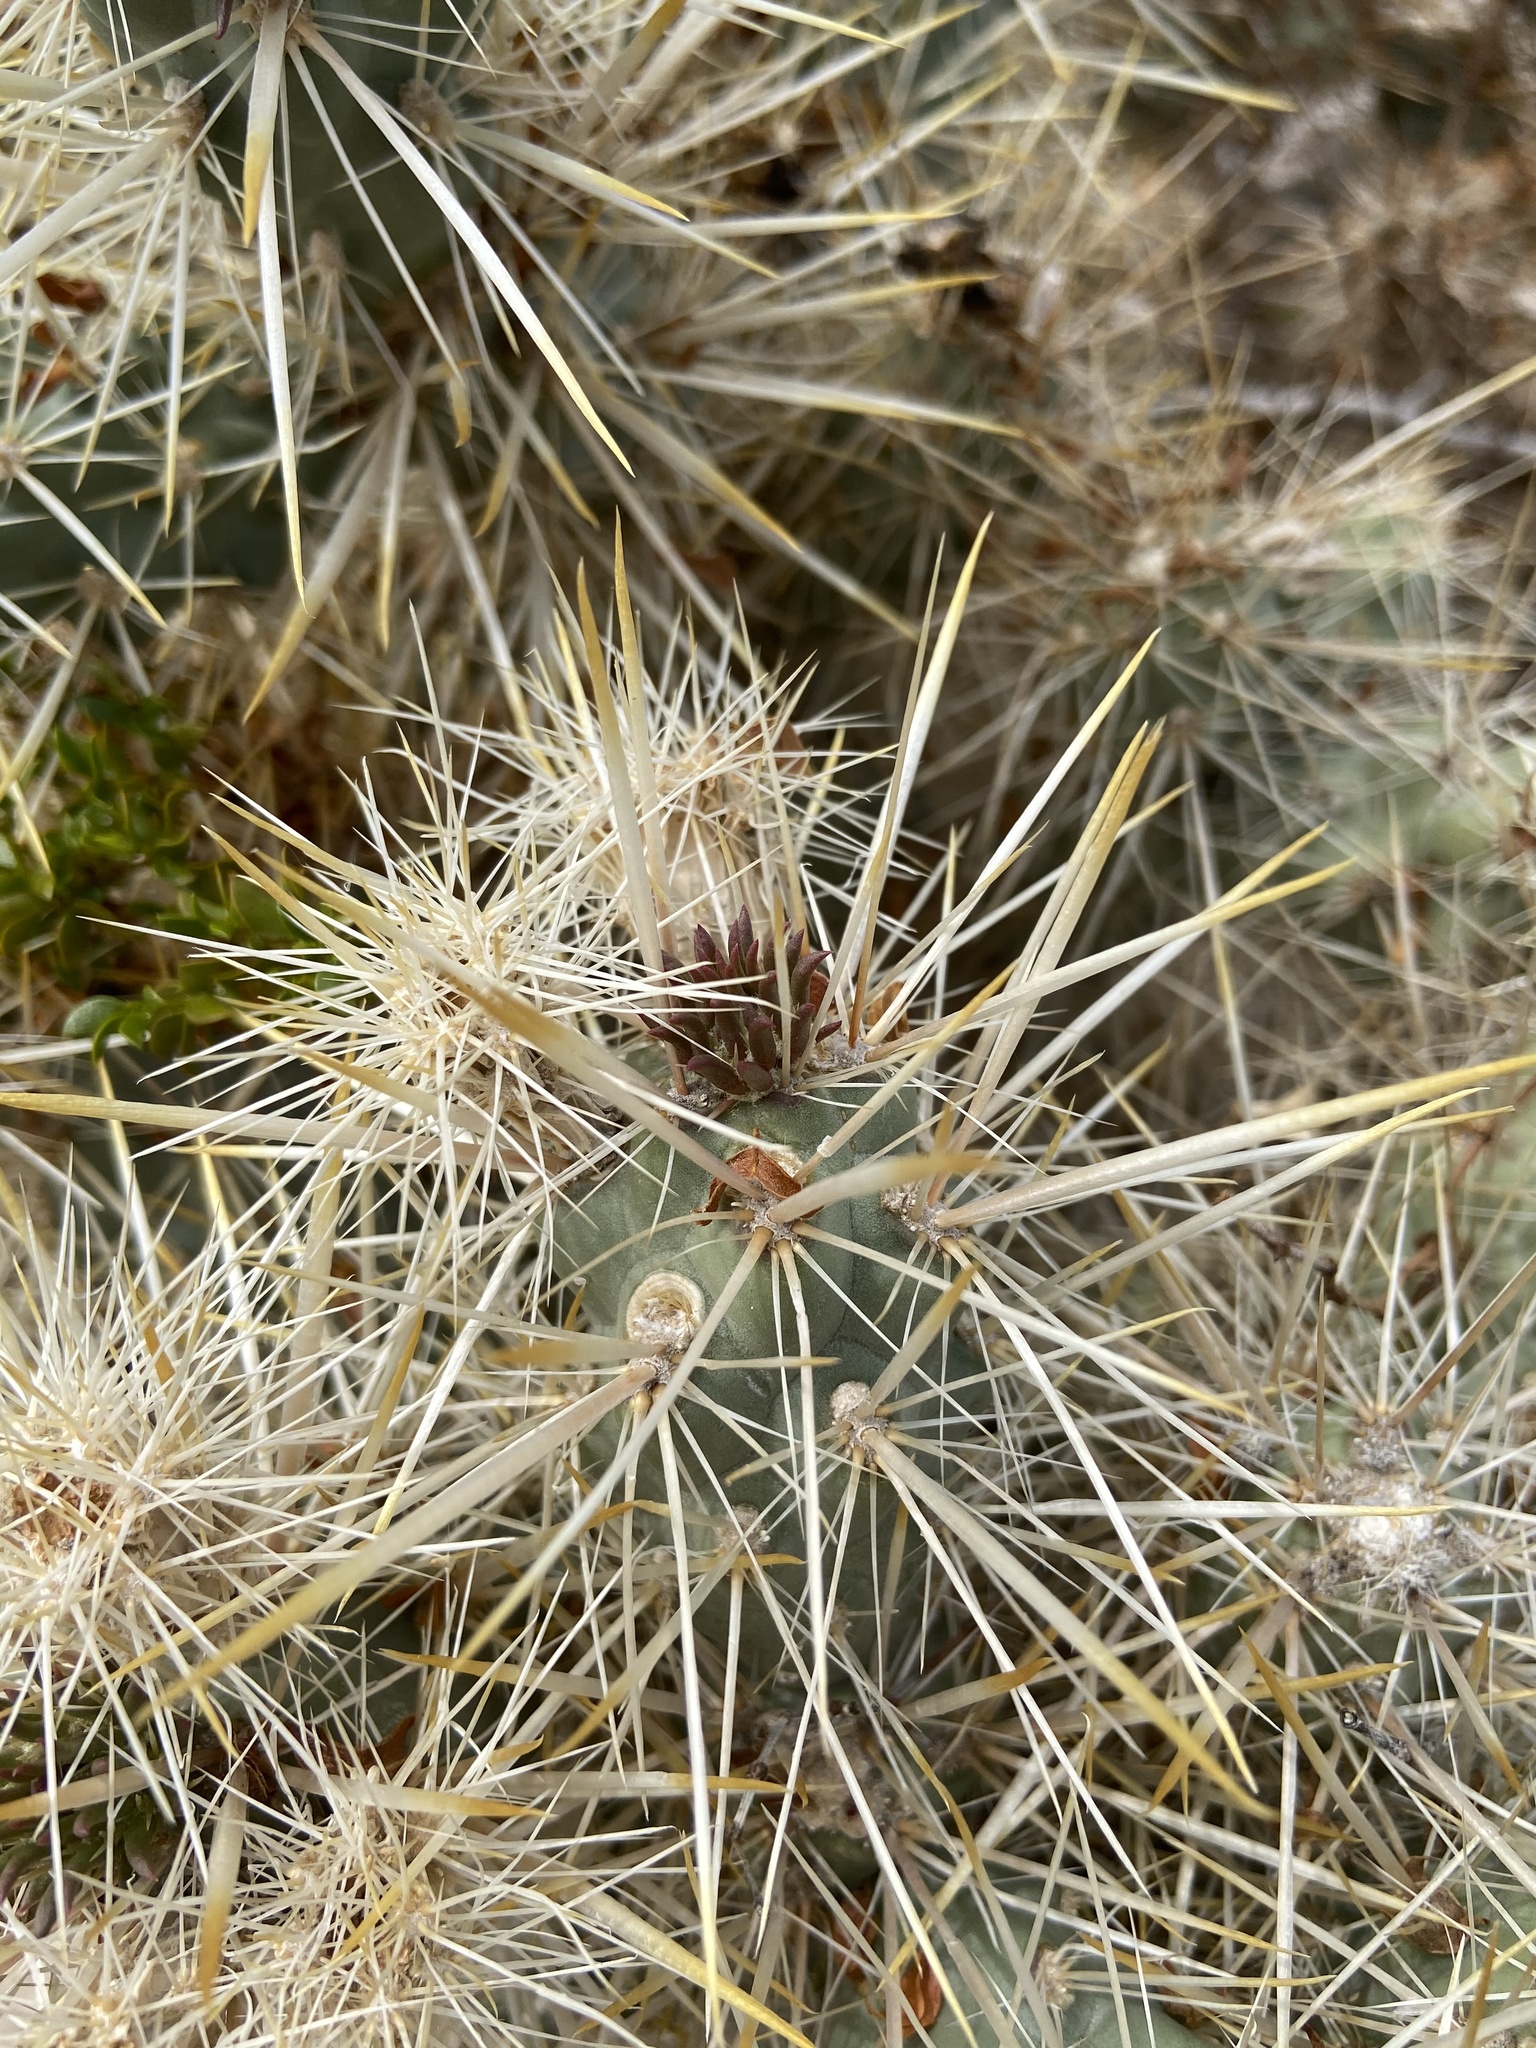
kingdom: Plantae
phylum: Tracheophyta
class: Magnoliopsida
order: Caryophyllales
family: Cactaceae
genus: Cylindropuntia
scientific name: Cylindropuntia echinocarpa
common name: Ground cholla
